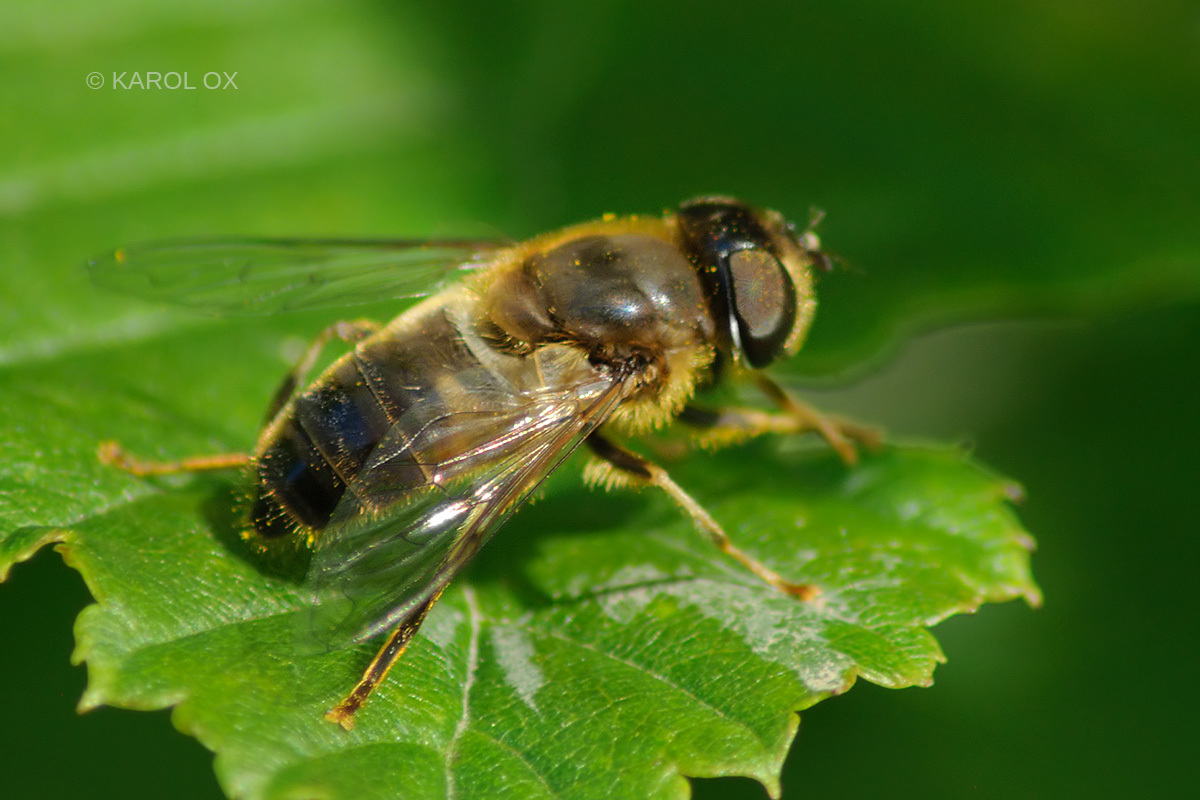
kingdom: Animalia
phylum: Arthropoda
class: Insecta
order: Diptera
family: Syrphidae
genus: Eristalis
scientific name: Eristalis pertinax
